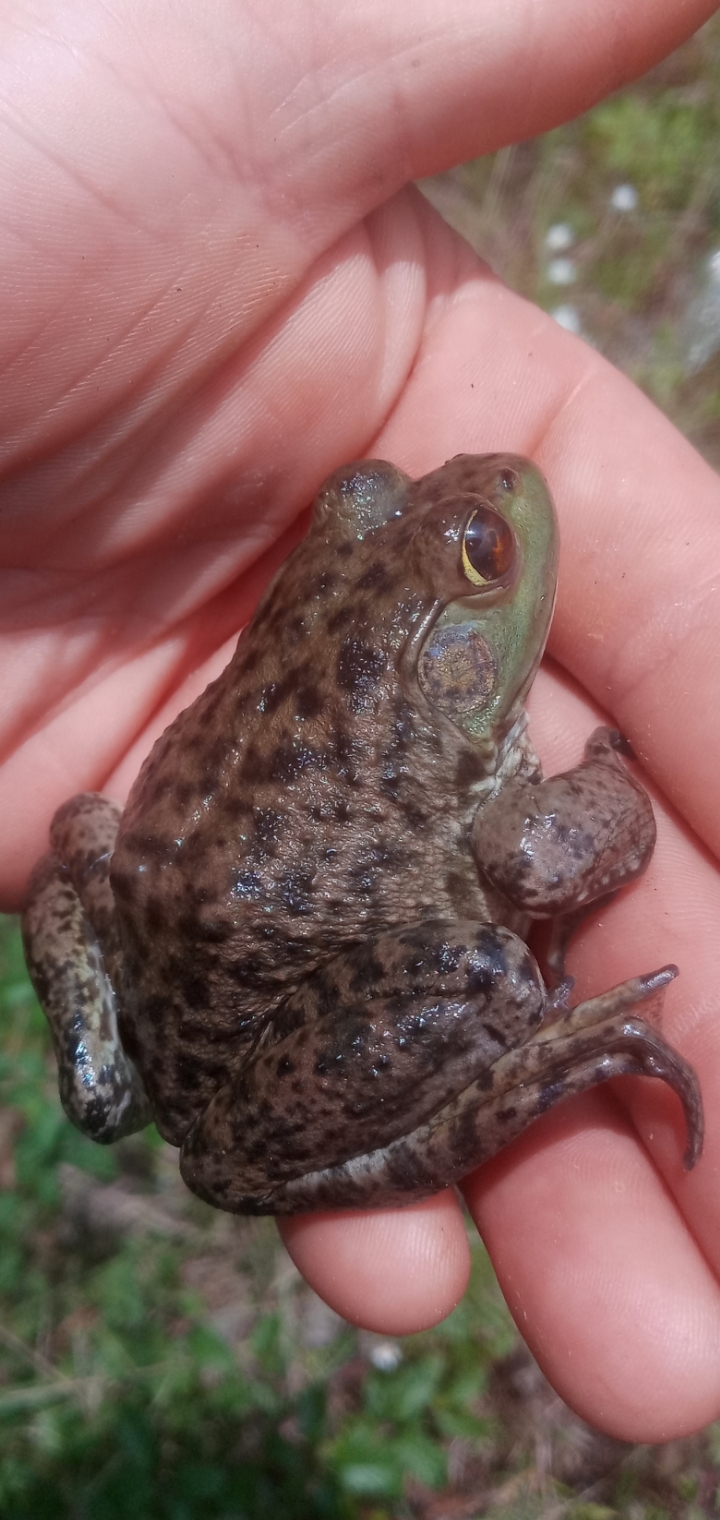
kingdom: Animalia
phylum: Chordata
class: Amphibia
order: Anura
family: Ranidae
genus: Lithobates
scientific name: Lithobates catesbeianus
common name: American bullfrog
